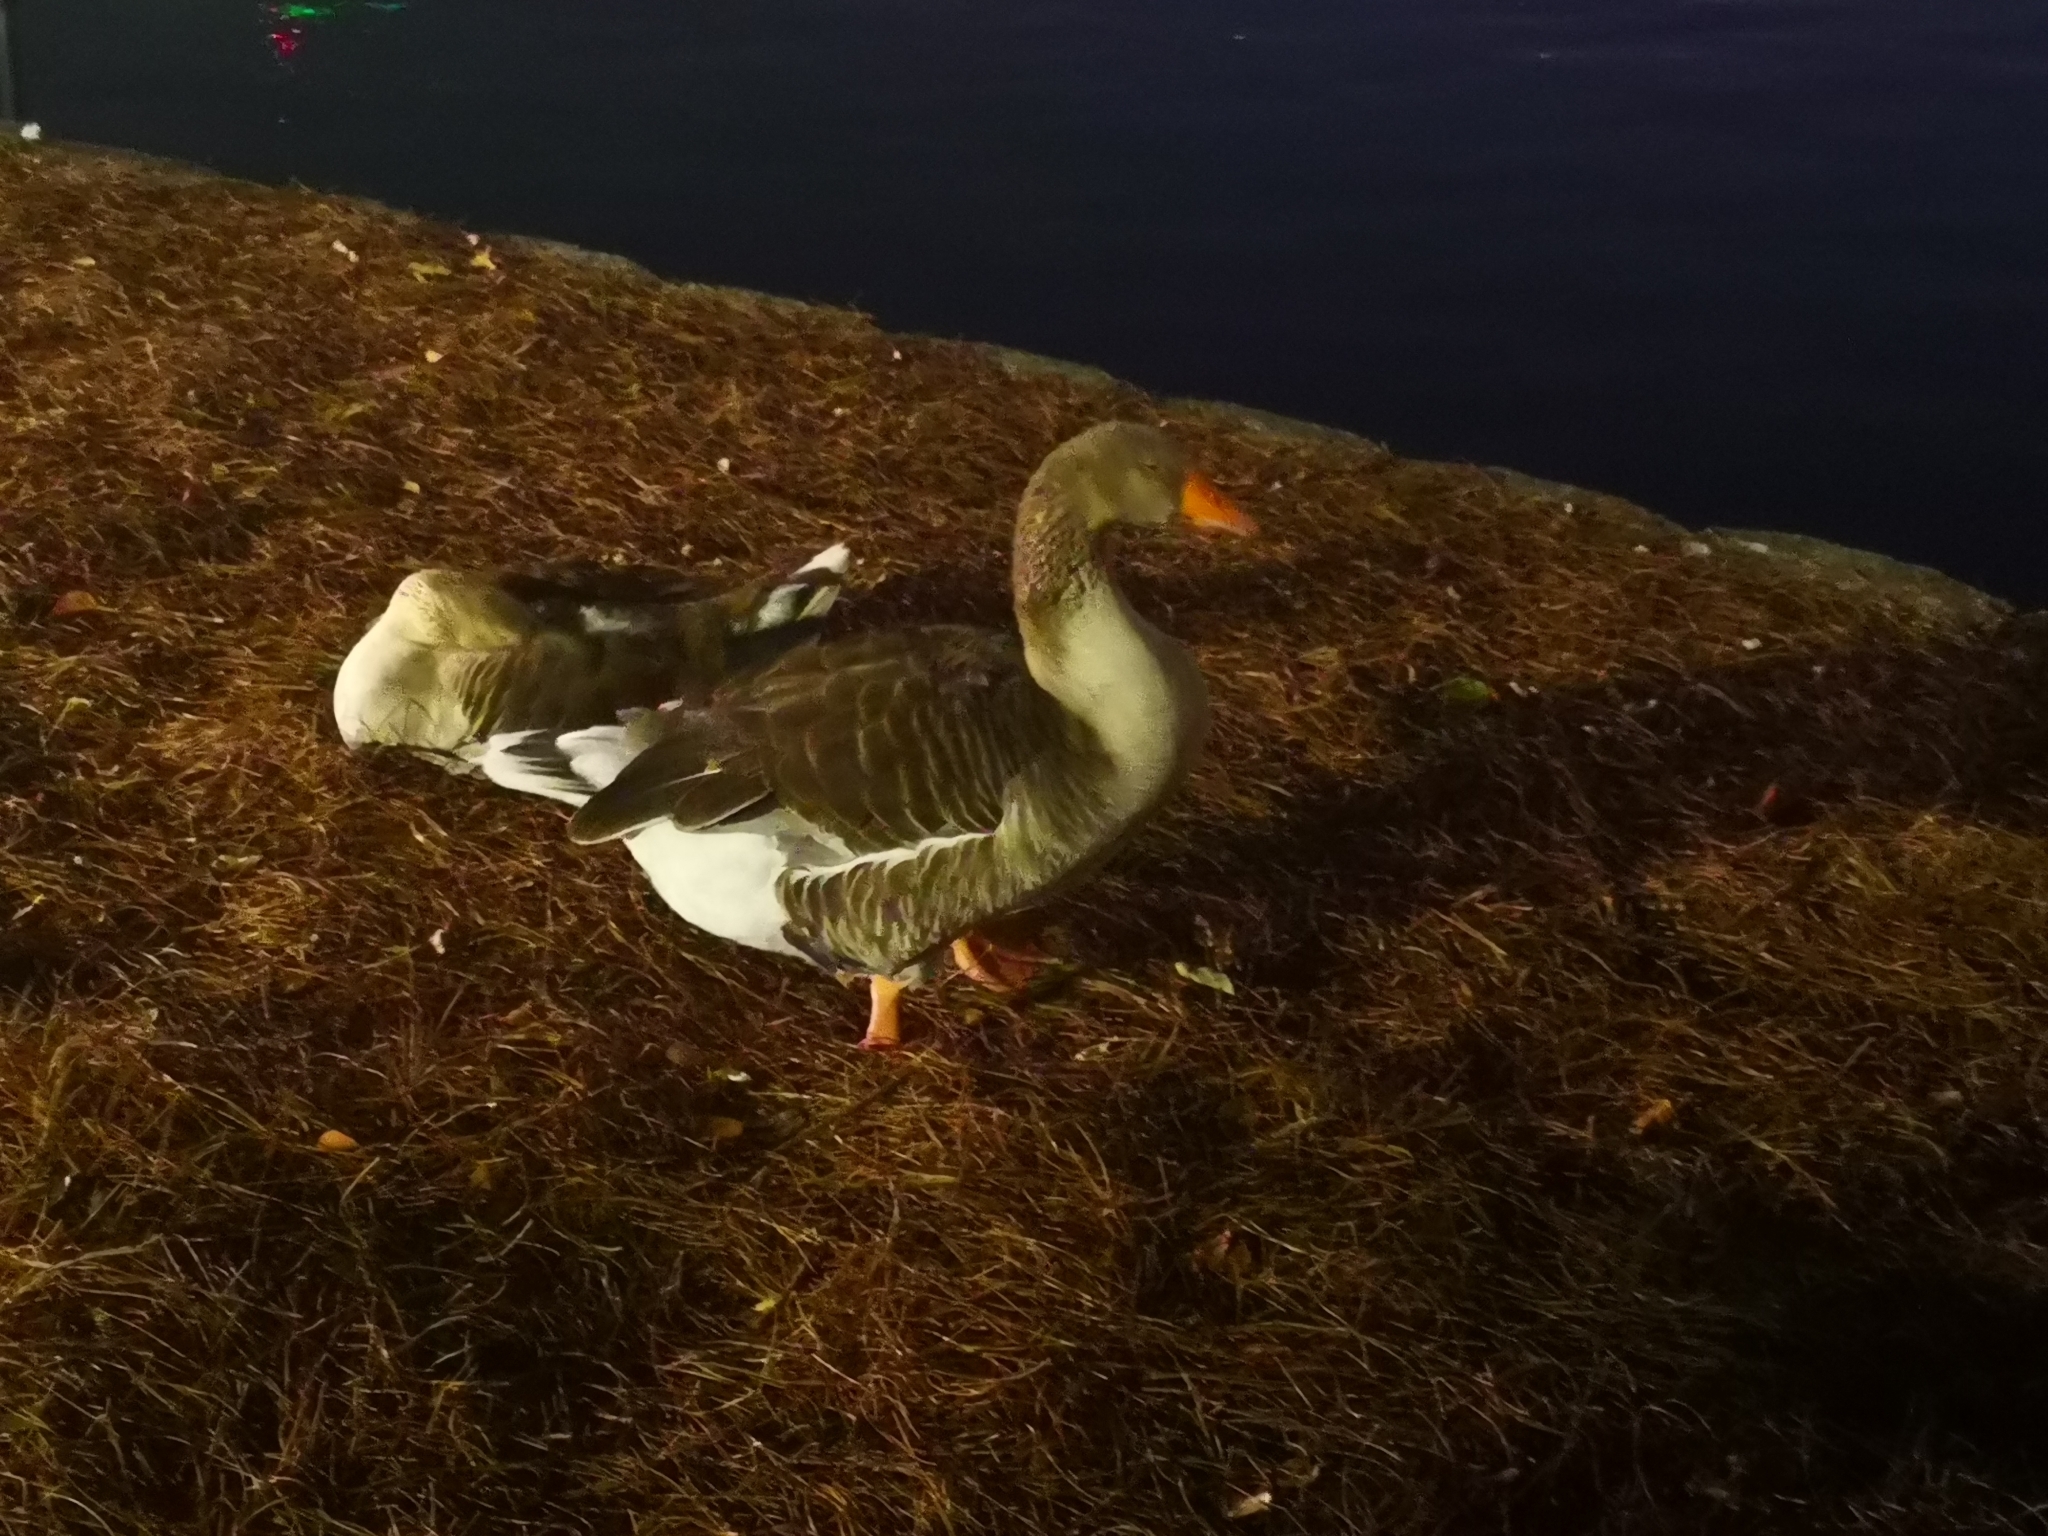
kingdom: Animalia
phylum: Chordata
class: Aves
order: Anseriformes
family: Anatidae
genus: Anser
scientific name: Anser anser
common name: Greylag goose
